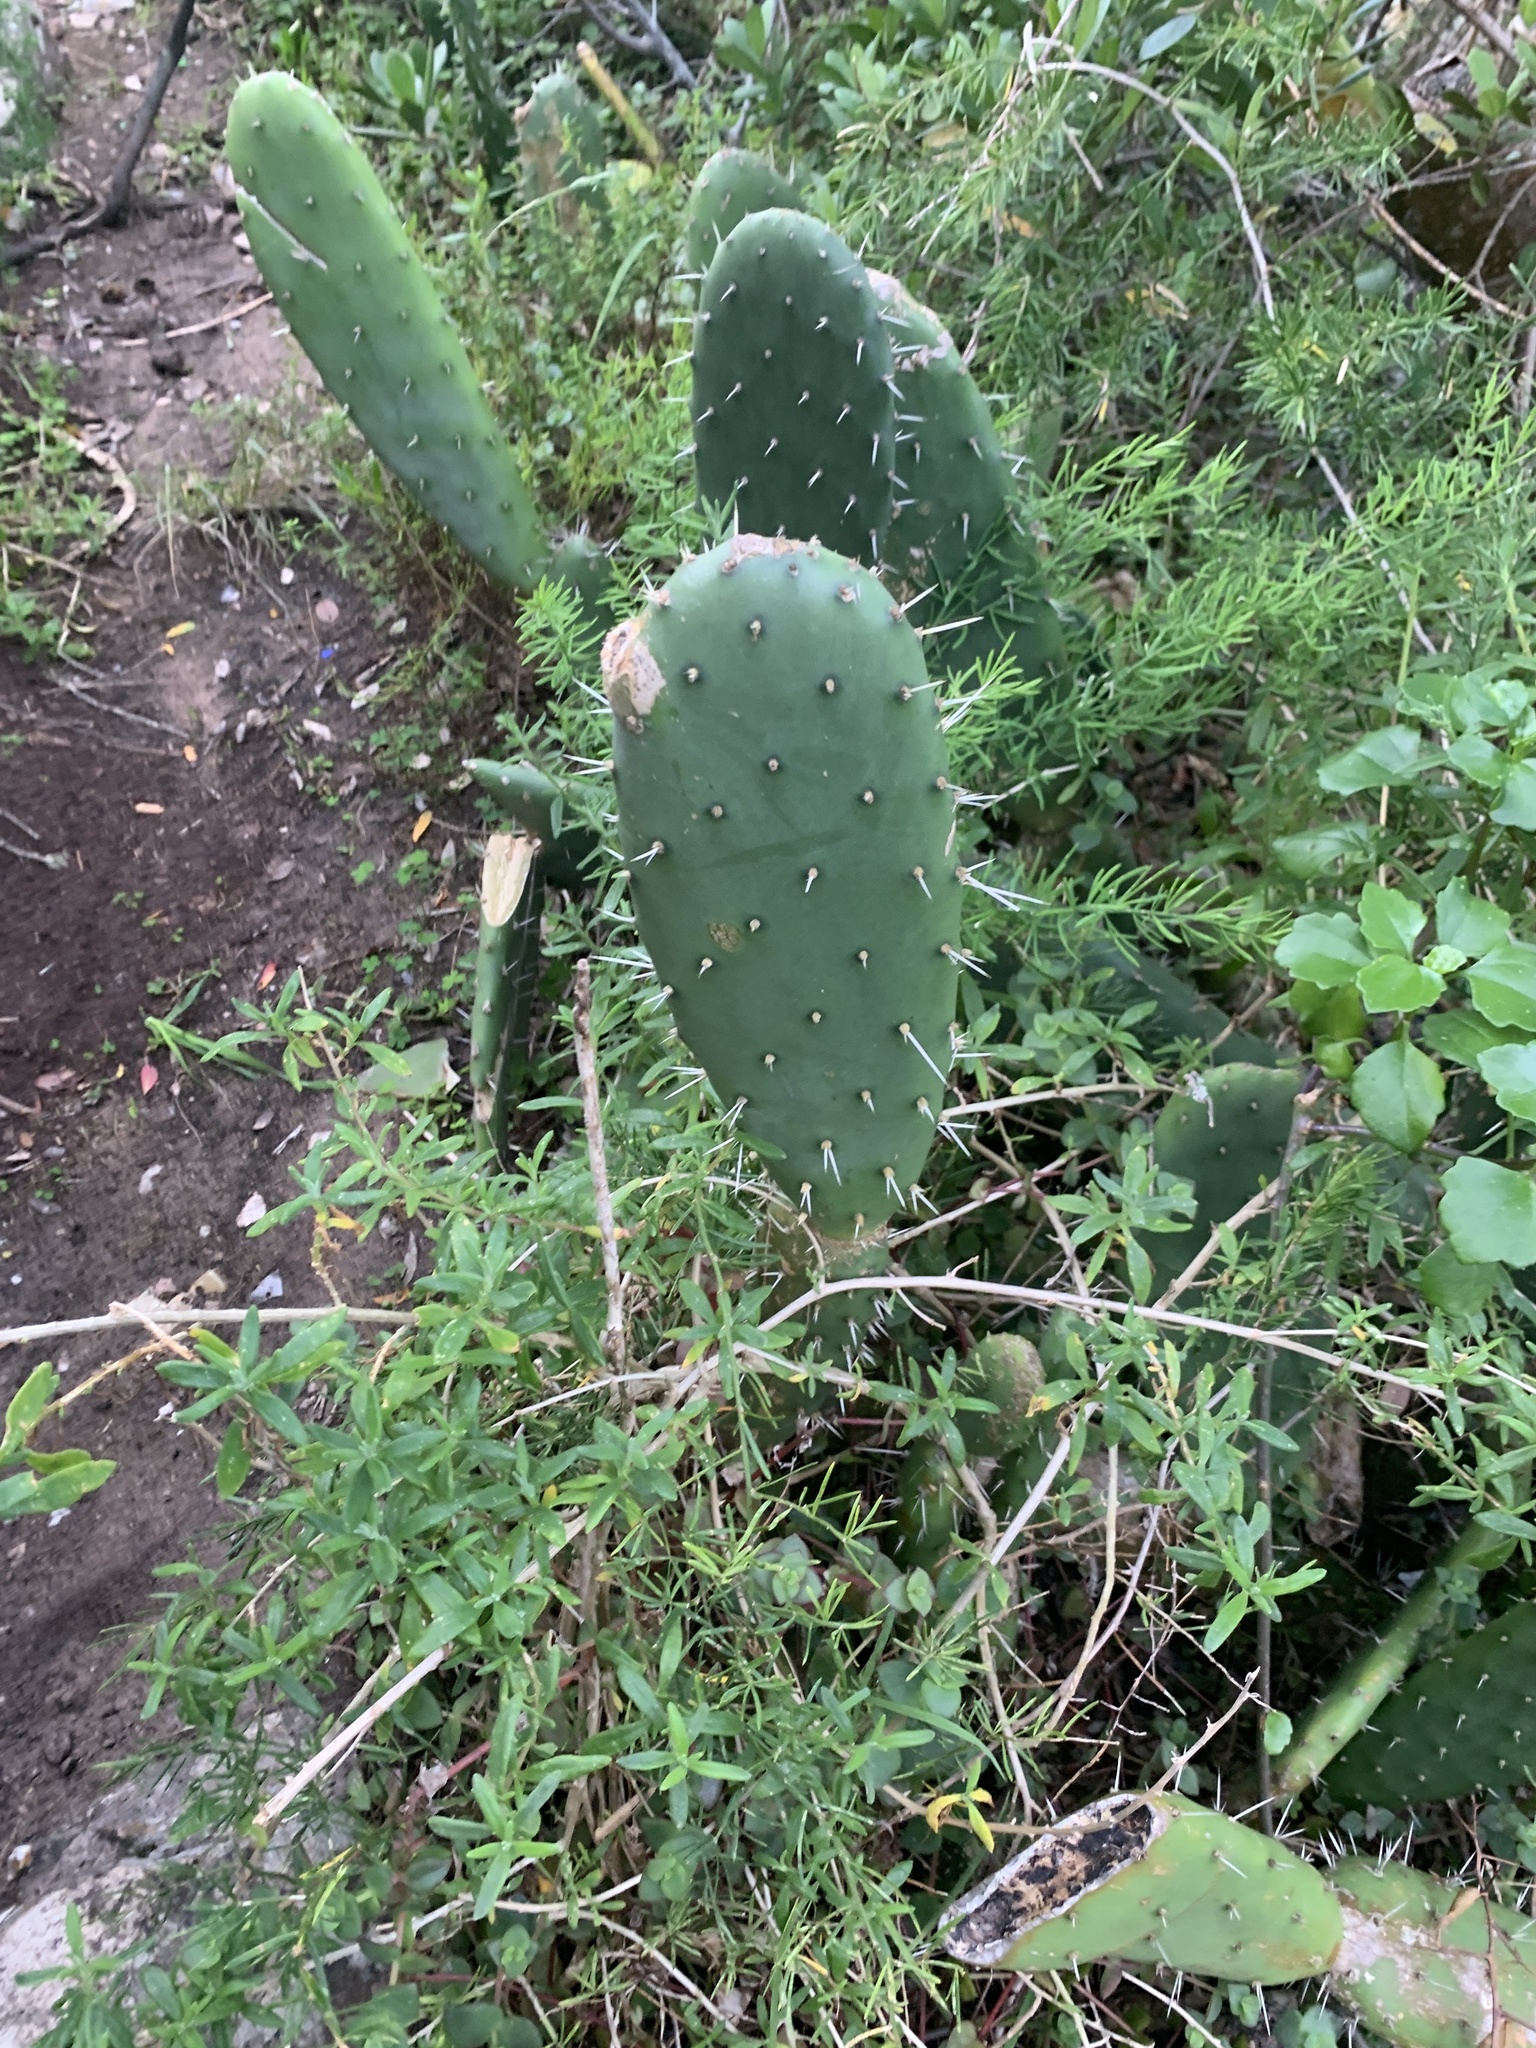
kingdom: Plantae
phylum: Tracheophyta
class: Magnoliopsida
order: Caryophyllales
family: Cactaceae
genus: Opuntia
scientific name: Opuntia ficus-indica
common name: Barbary fig
